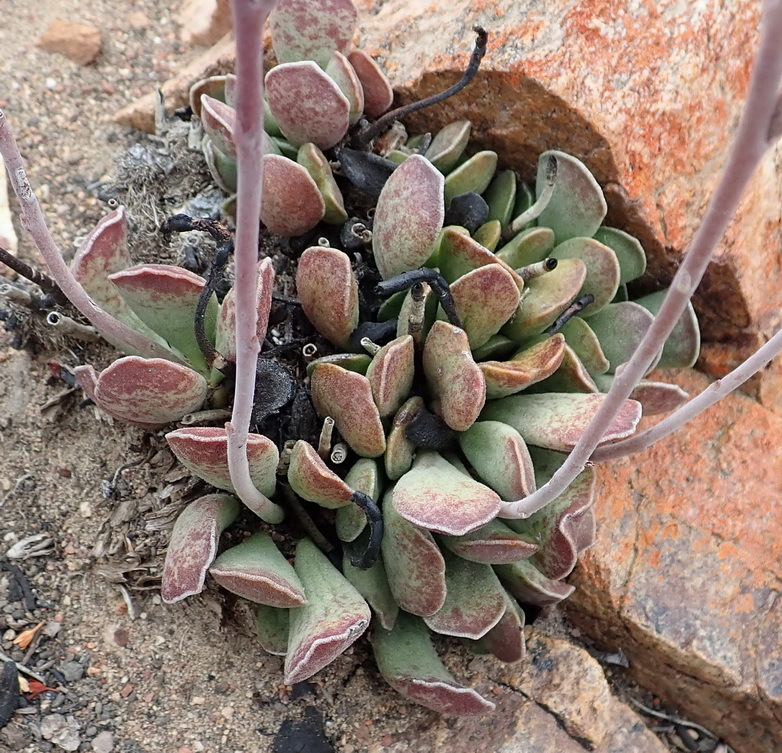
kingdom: Plantae
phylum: Tracheophyta
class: Magnoliopsida
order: Saxifragales
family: Crassulaceae
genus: Adromischus
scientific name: Adromischus cristatus
